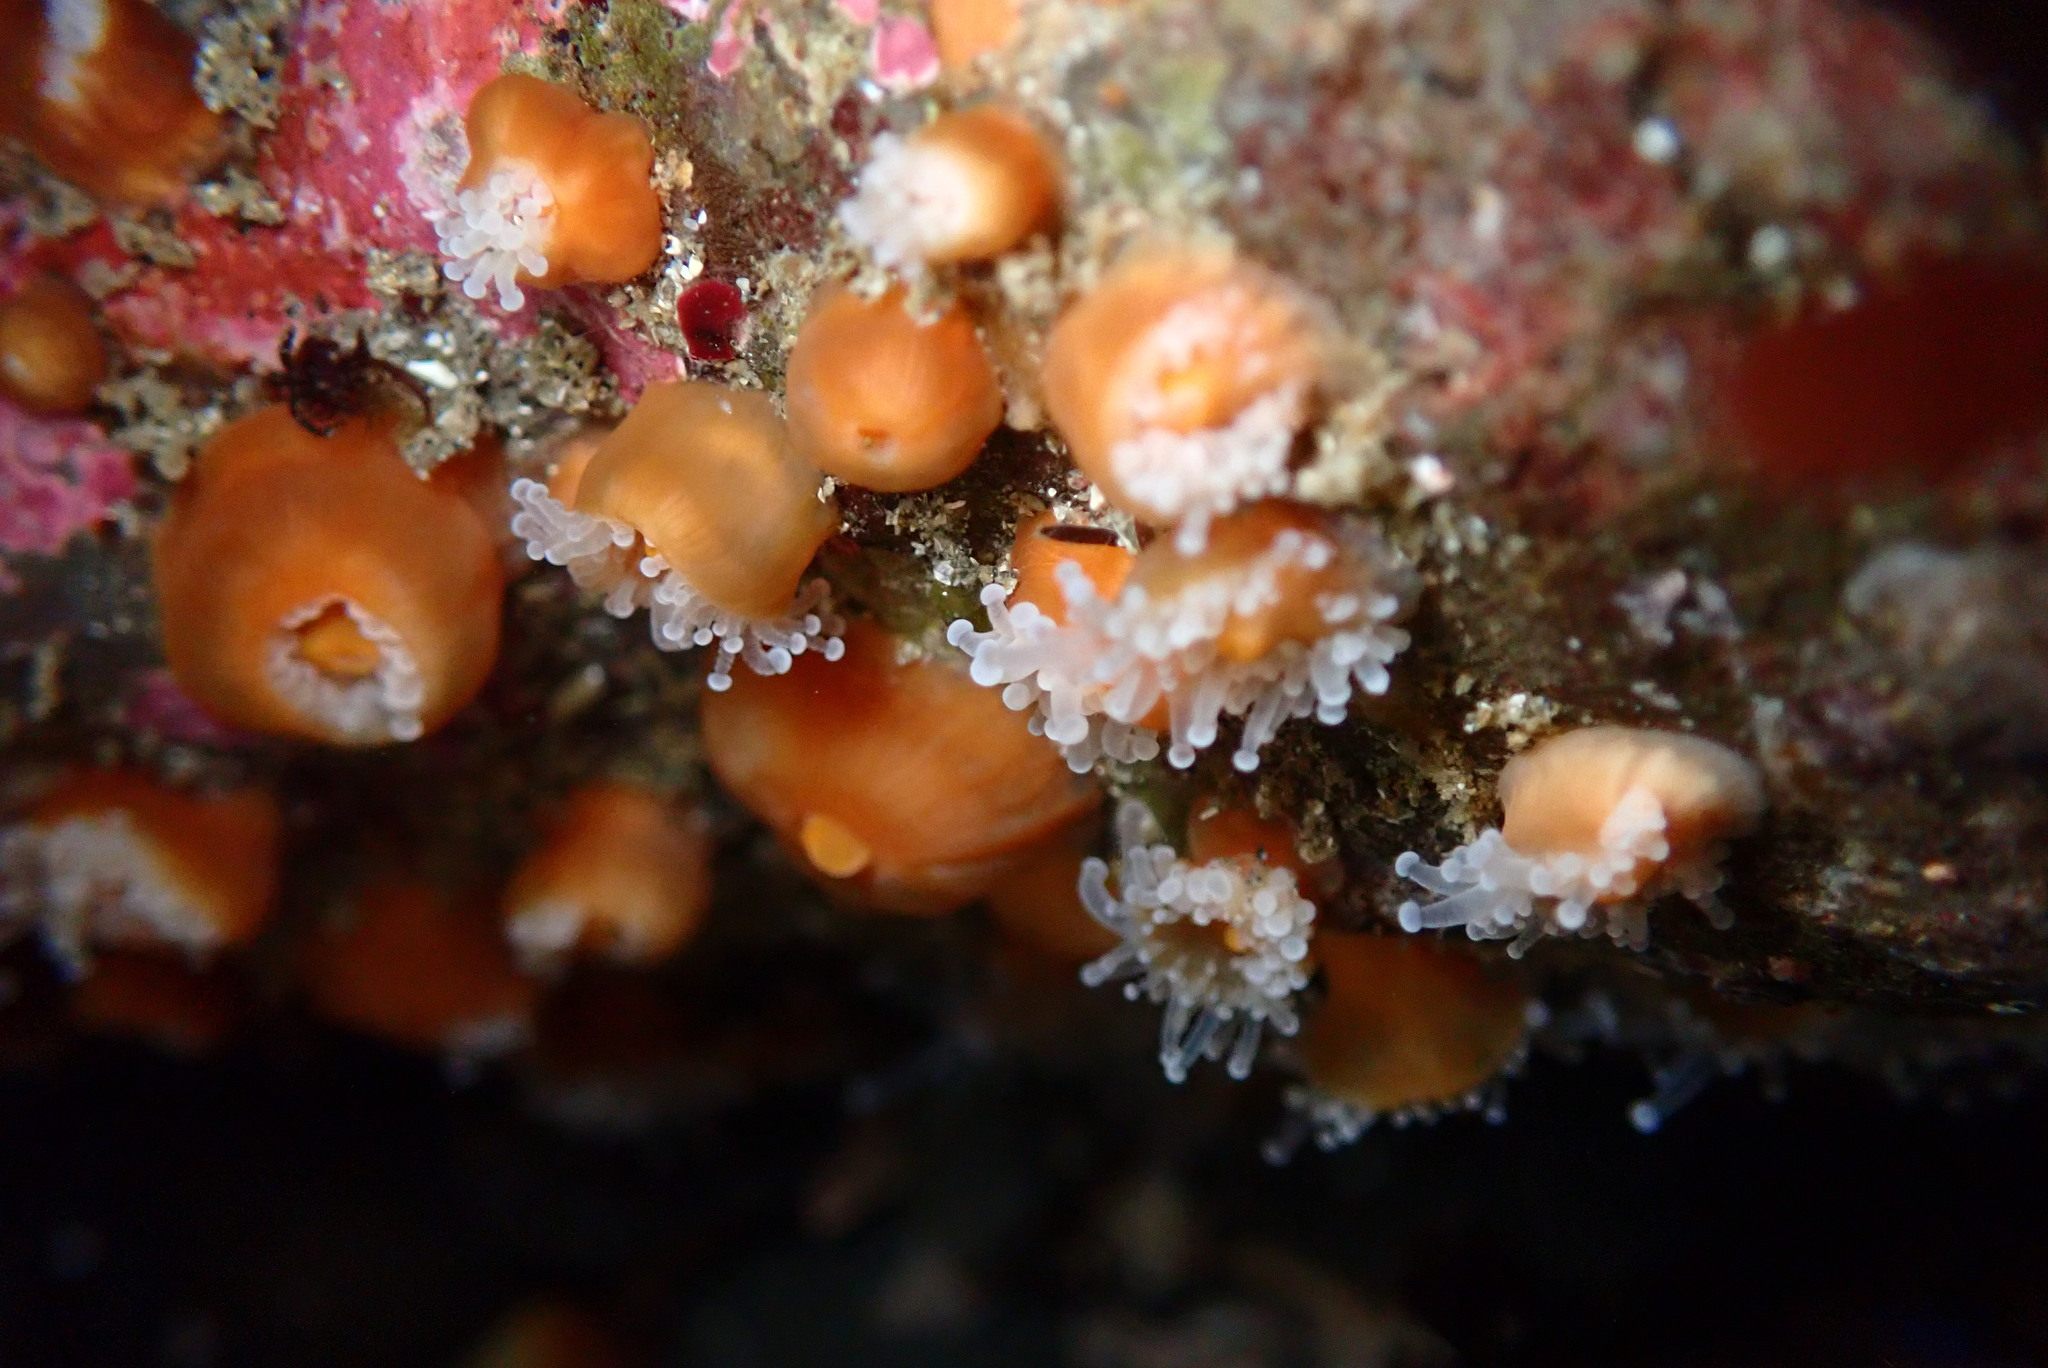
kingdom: Animalia
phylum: Cnidaria
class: Anthozoa
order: Corallimorpharia
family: Corallimorphidae
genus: Corynactis
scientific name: Corynactis californica
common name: Strawberry corallimorpharian
